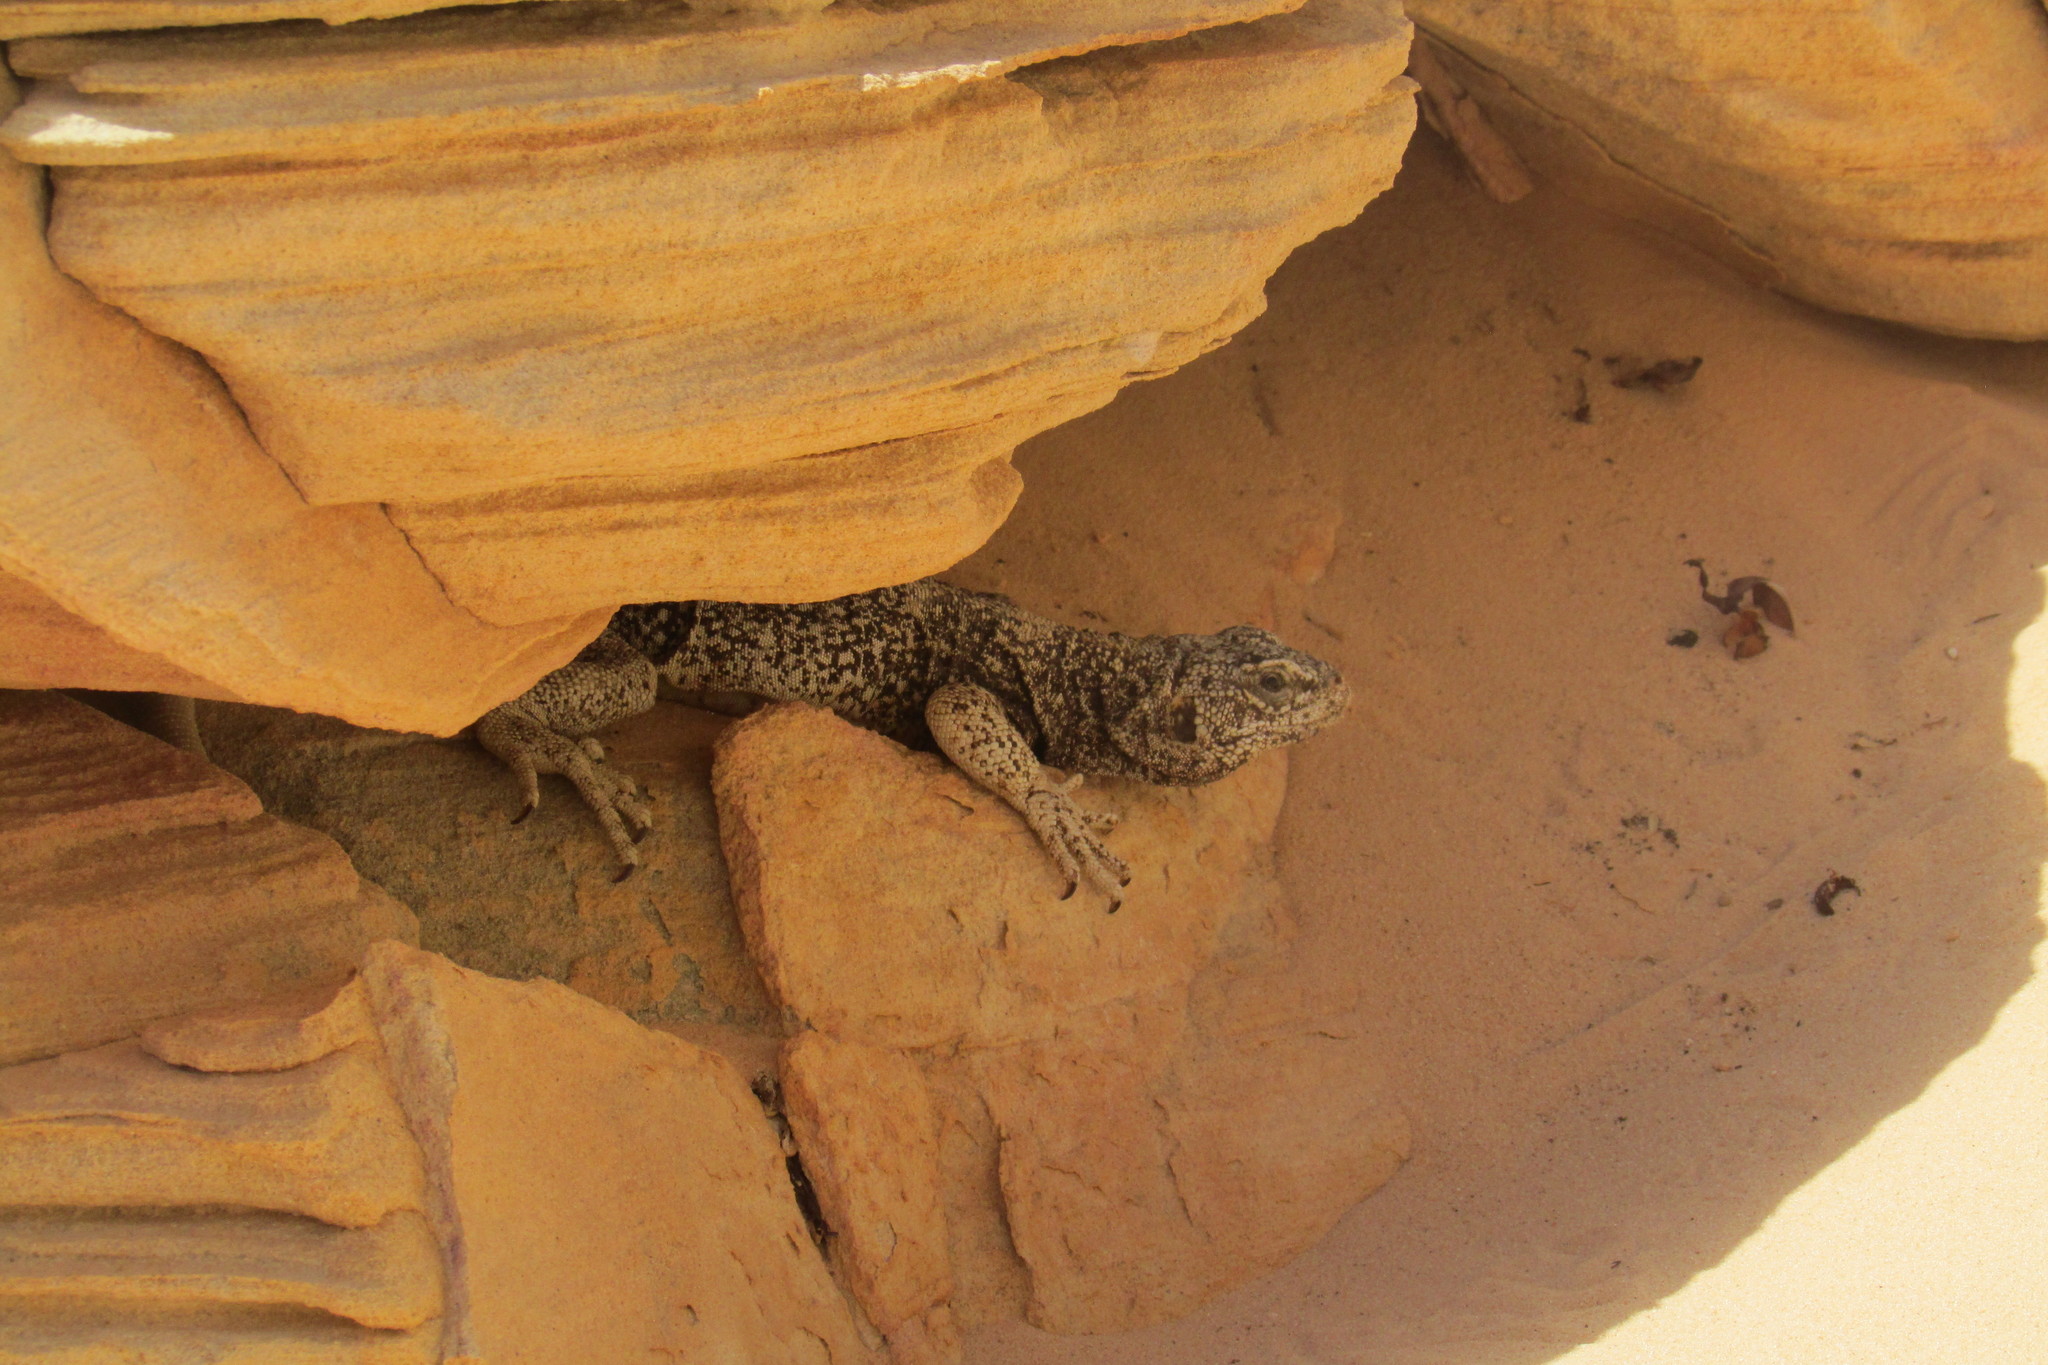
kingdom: Animalia
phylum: Chordata
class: Squamata
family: Iguanidae
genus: Sauromalus
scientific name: Sauromalus ater
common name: Northern chuckwalla
